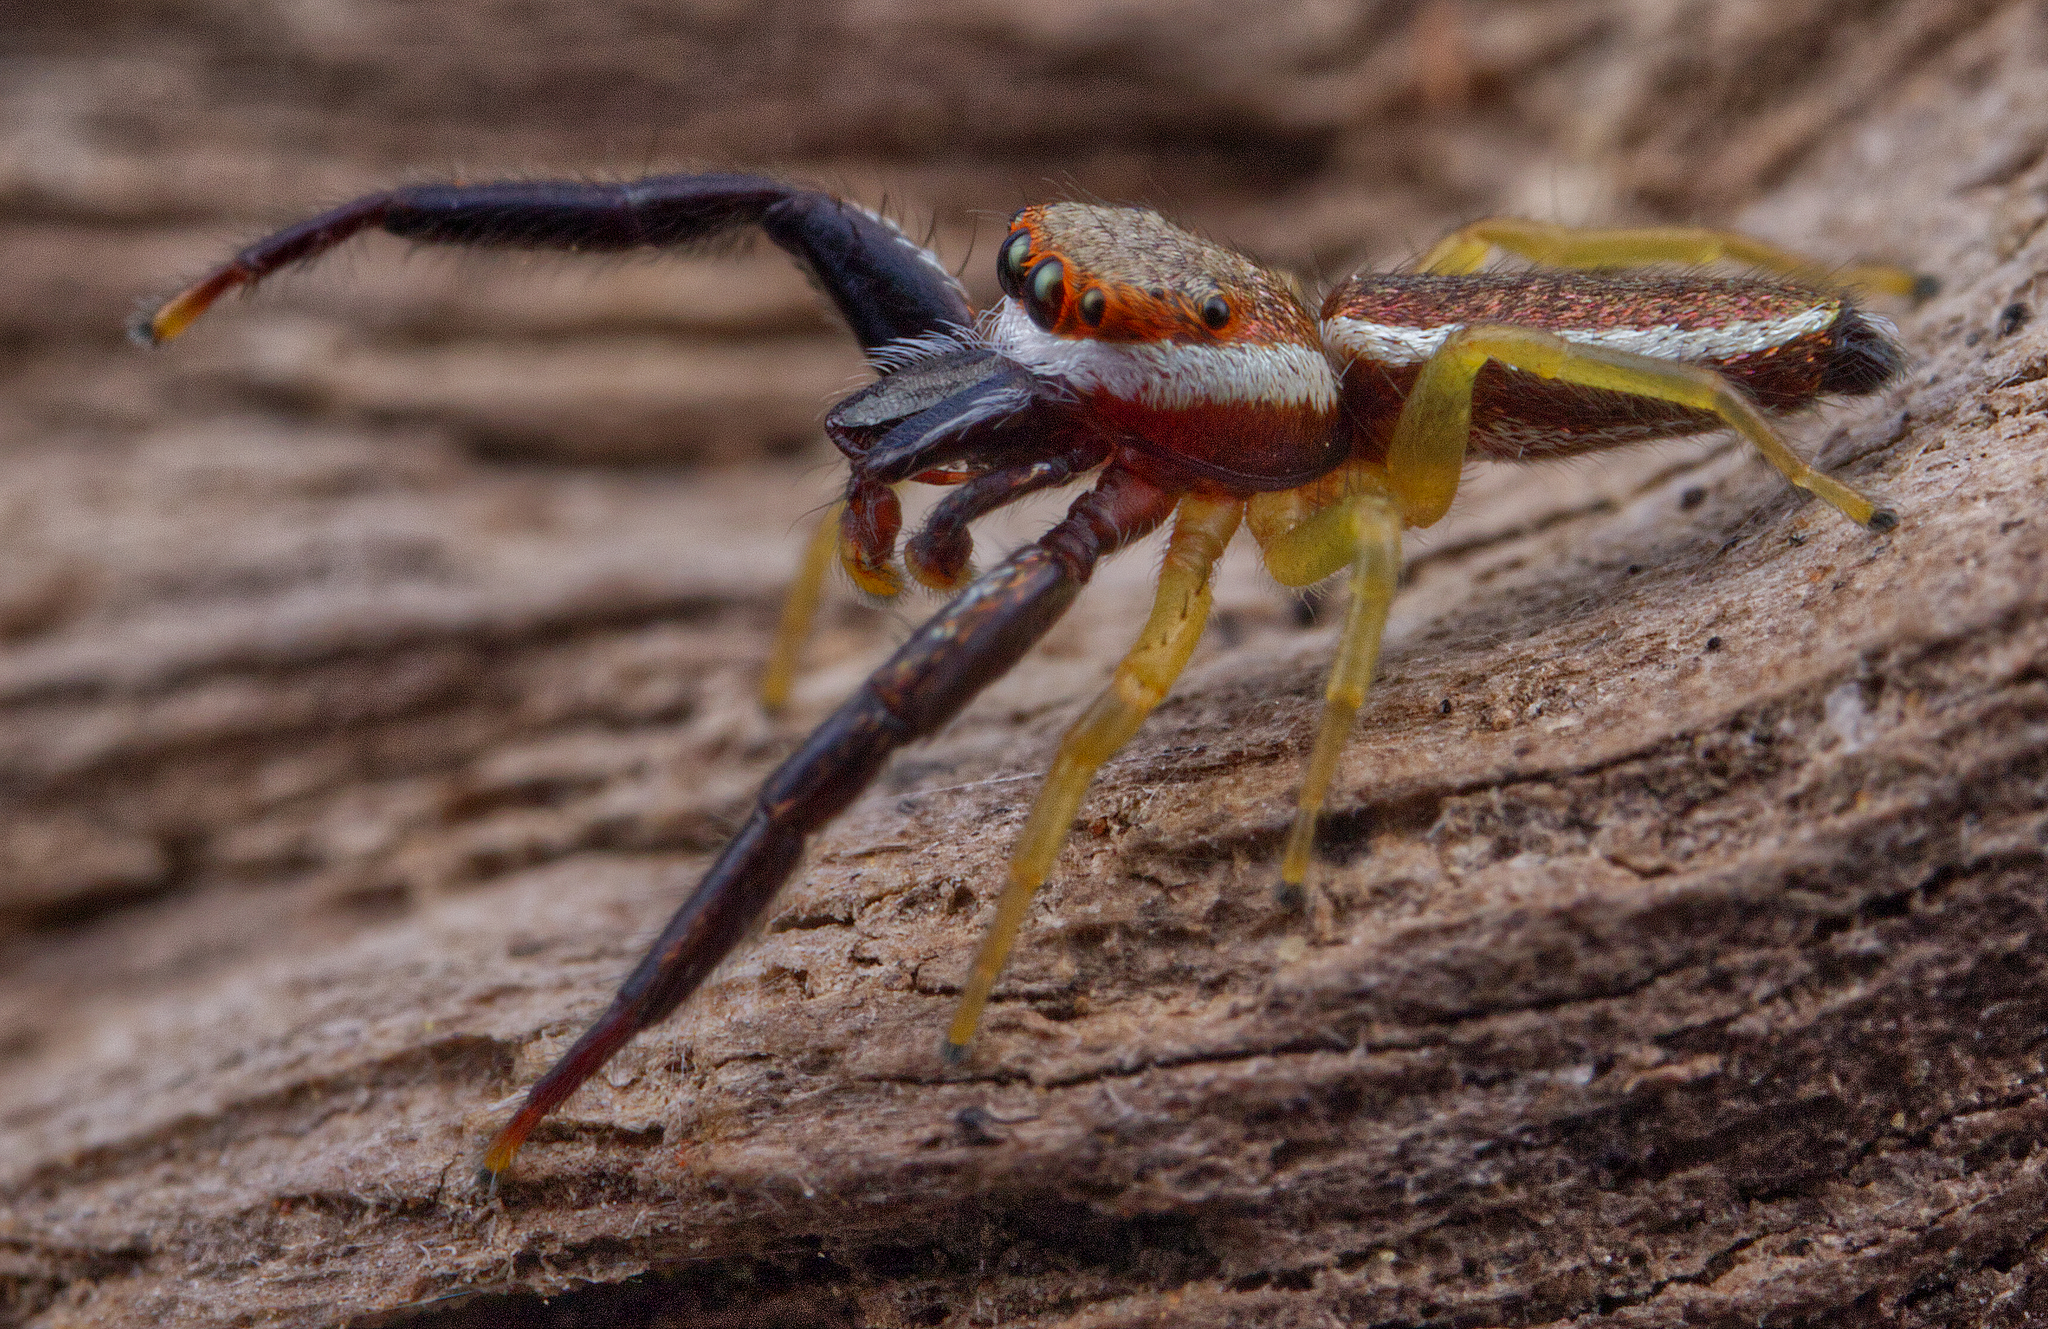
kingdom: Animalia
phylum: Arthropoda
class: Arachnida
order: Araneae
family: Salticidae
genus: Hentzia
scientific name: Hentzia palmarum
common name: Common hentz jumping spider
